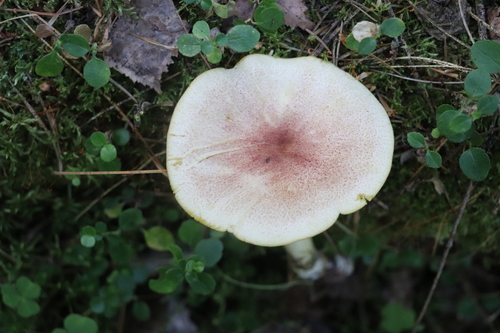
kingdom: Fungi
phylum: Basidiomycota
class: Agaricomycetes
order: Agaricales
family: Tricholomataceae
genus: Tricholomopsis
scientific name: Tricholomopsis rutilans
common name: Plums and custard
